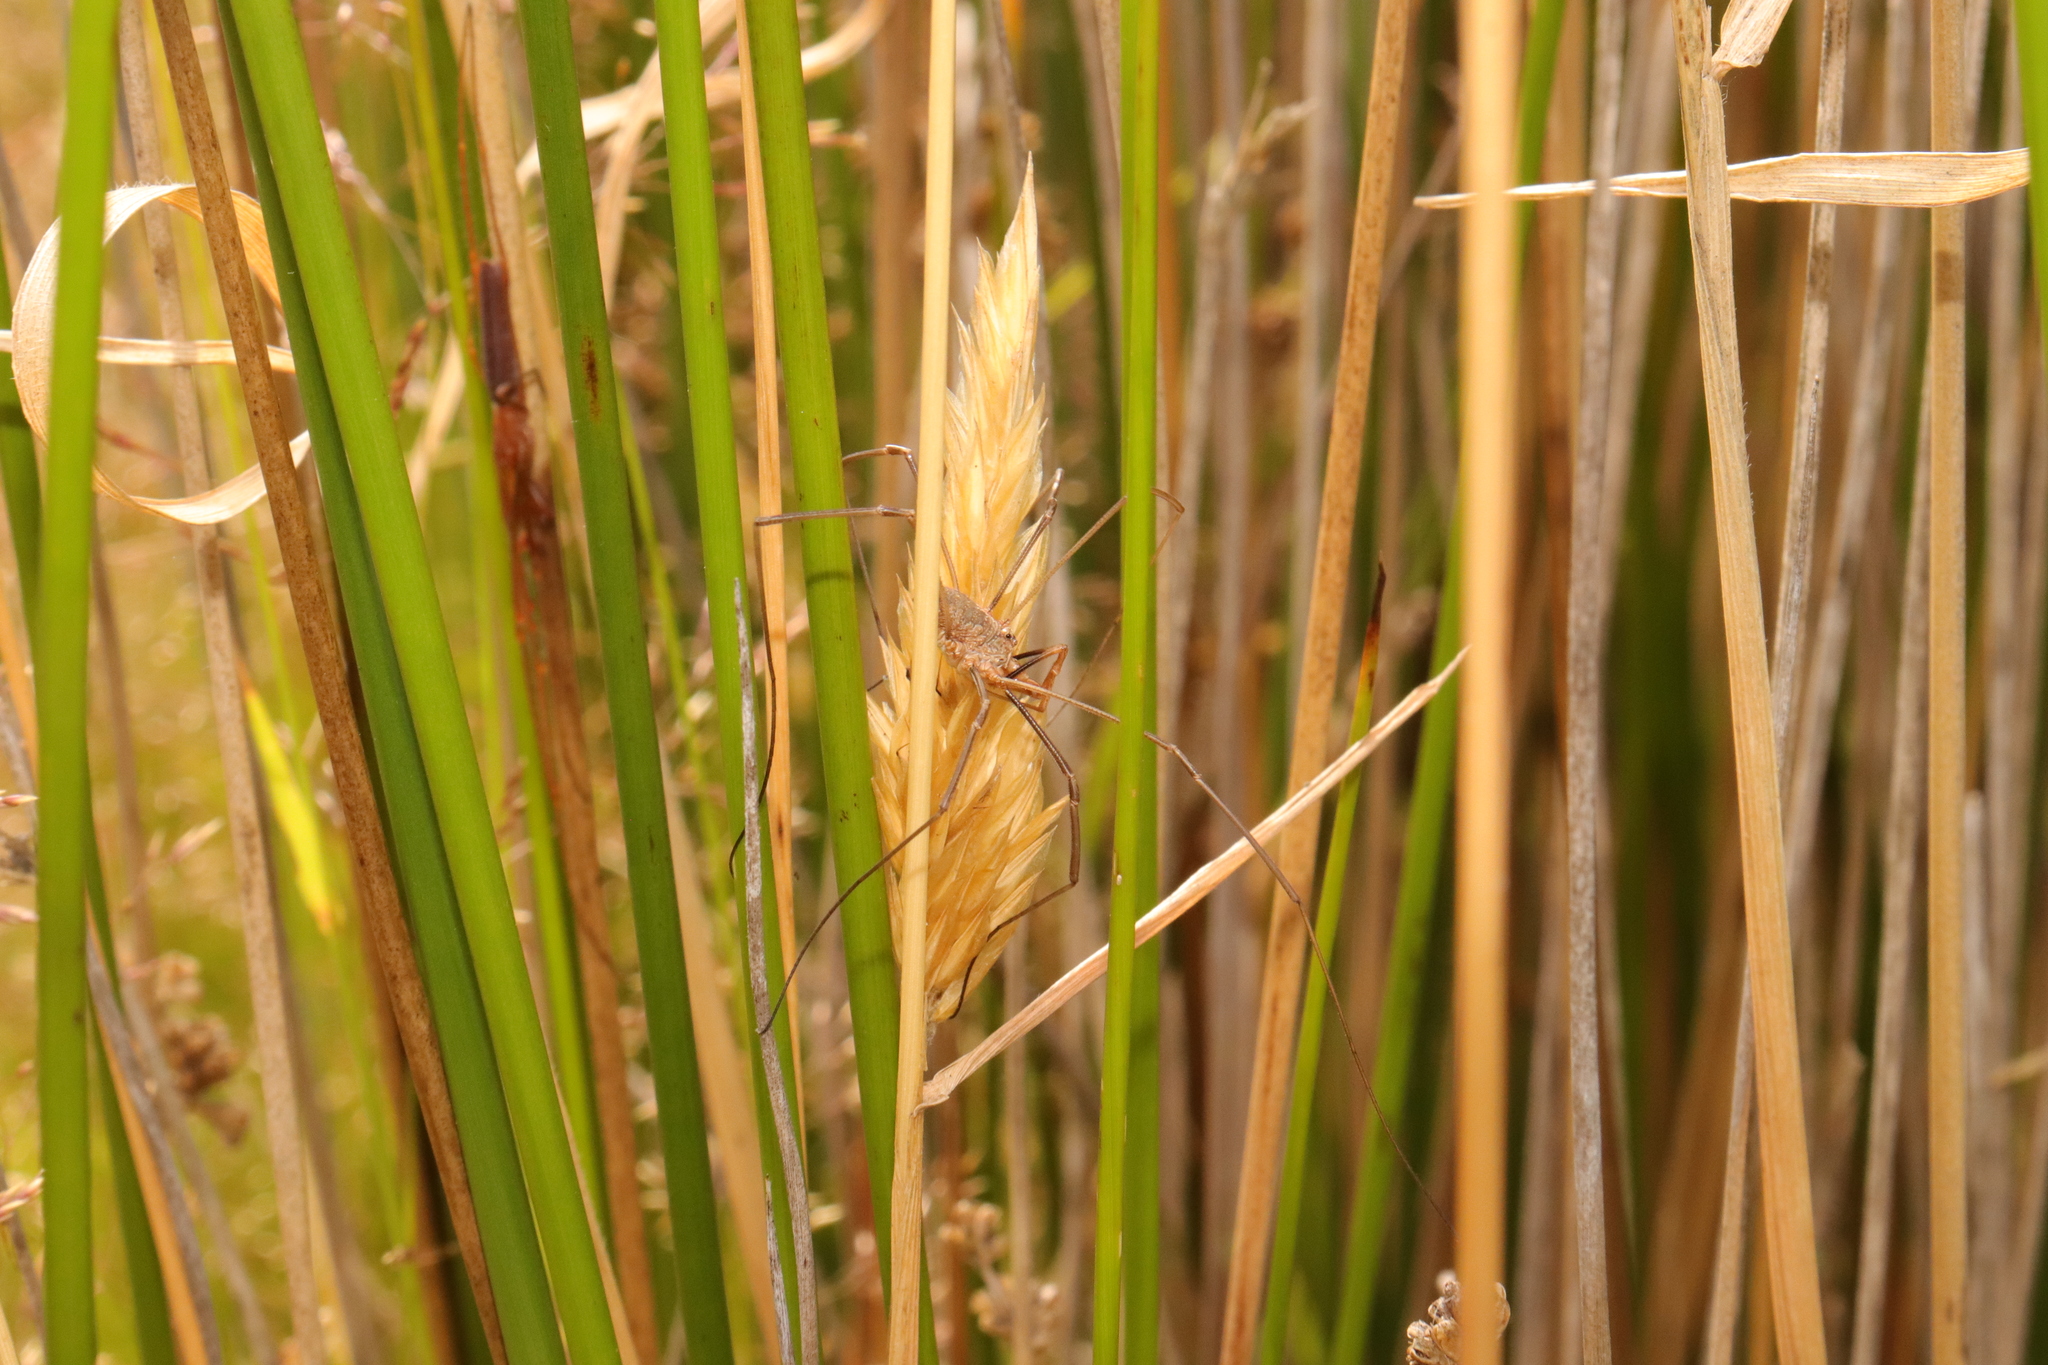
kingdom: Animalia
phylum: Arthropoda
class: Arachnida
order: Opiliones
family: Phalangiidae
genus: Phalangium
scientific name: Phalangium opilio
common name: Daddy longleg
